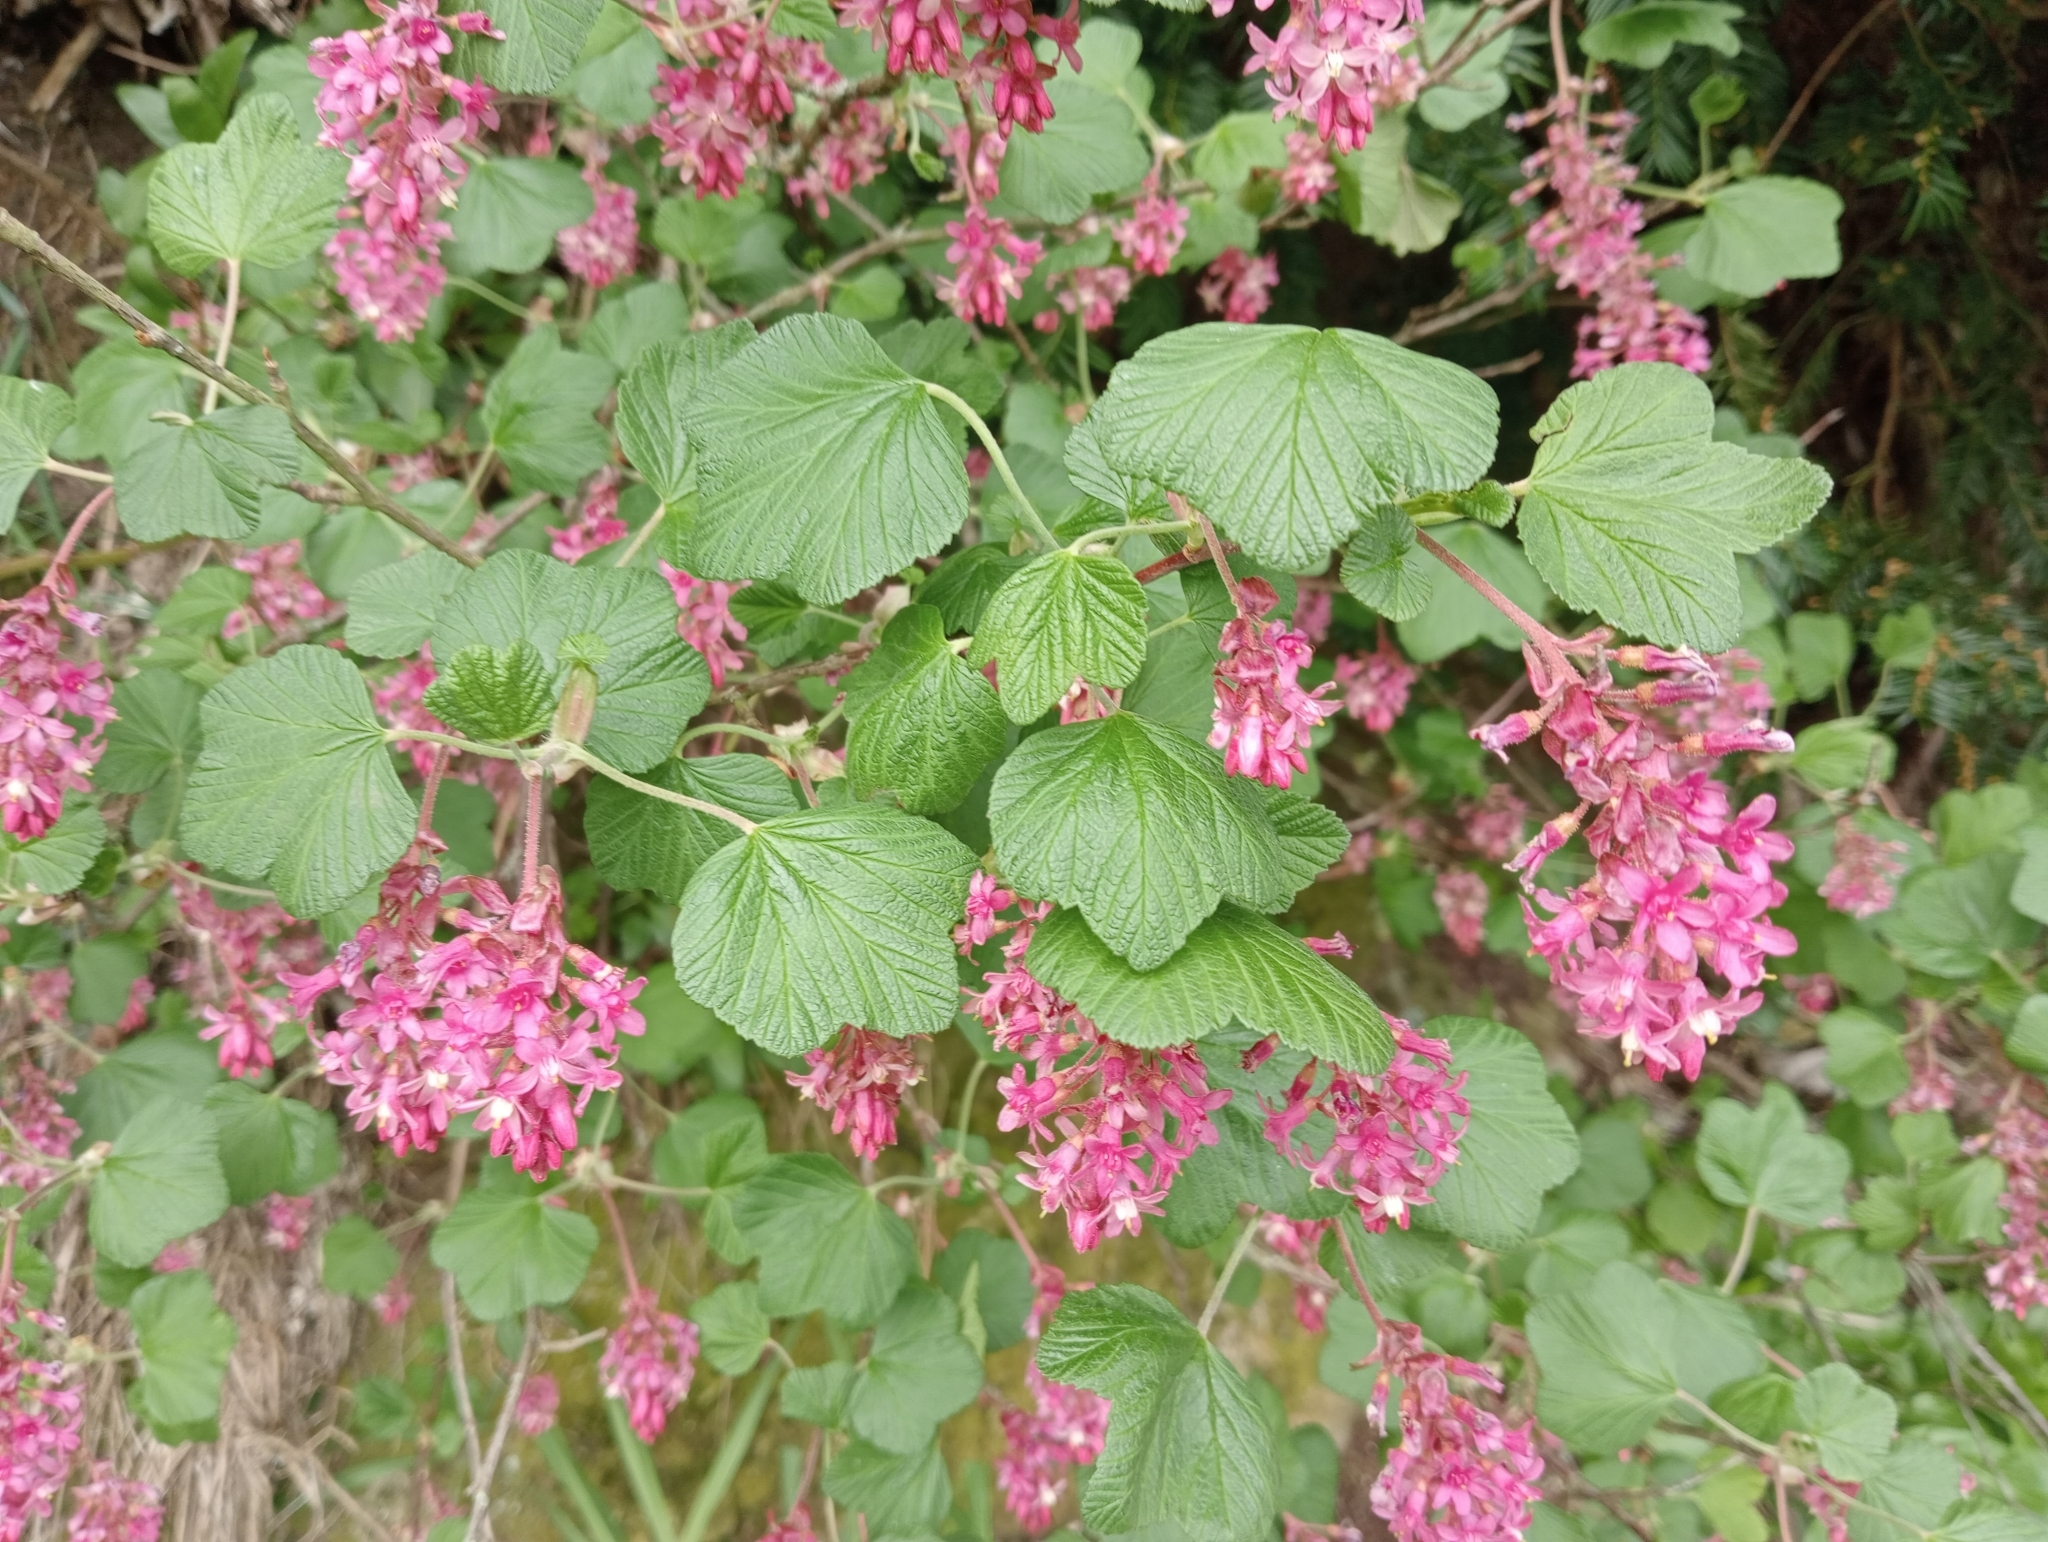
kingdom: Plantae
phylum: Tracheophyta
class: Magnoliopsida
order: Saxifragales
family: Grossulariaceae
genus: Ribes
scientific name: Ribes sanguineum
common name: Flowering currant
